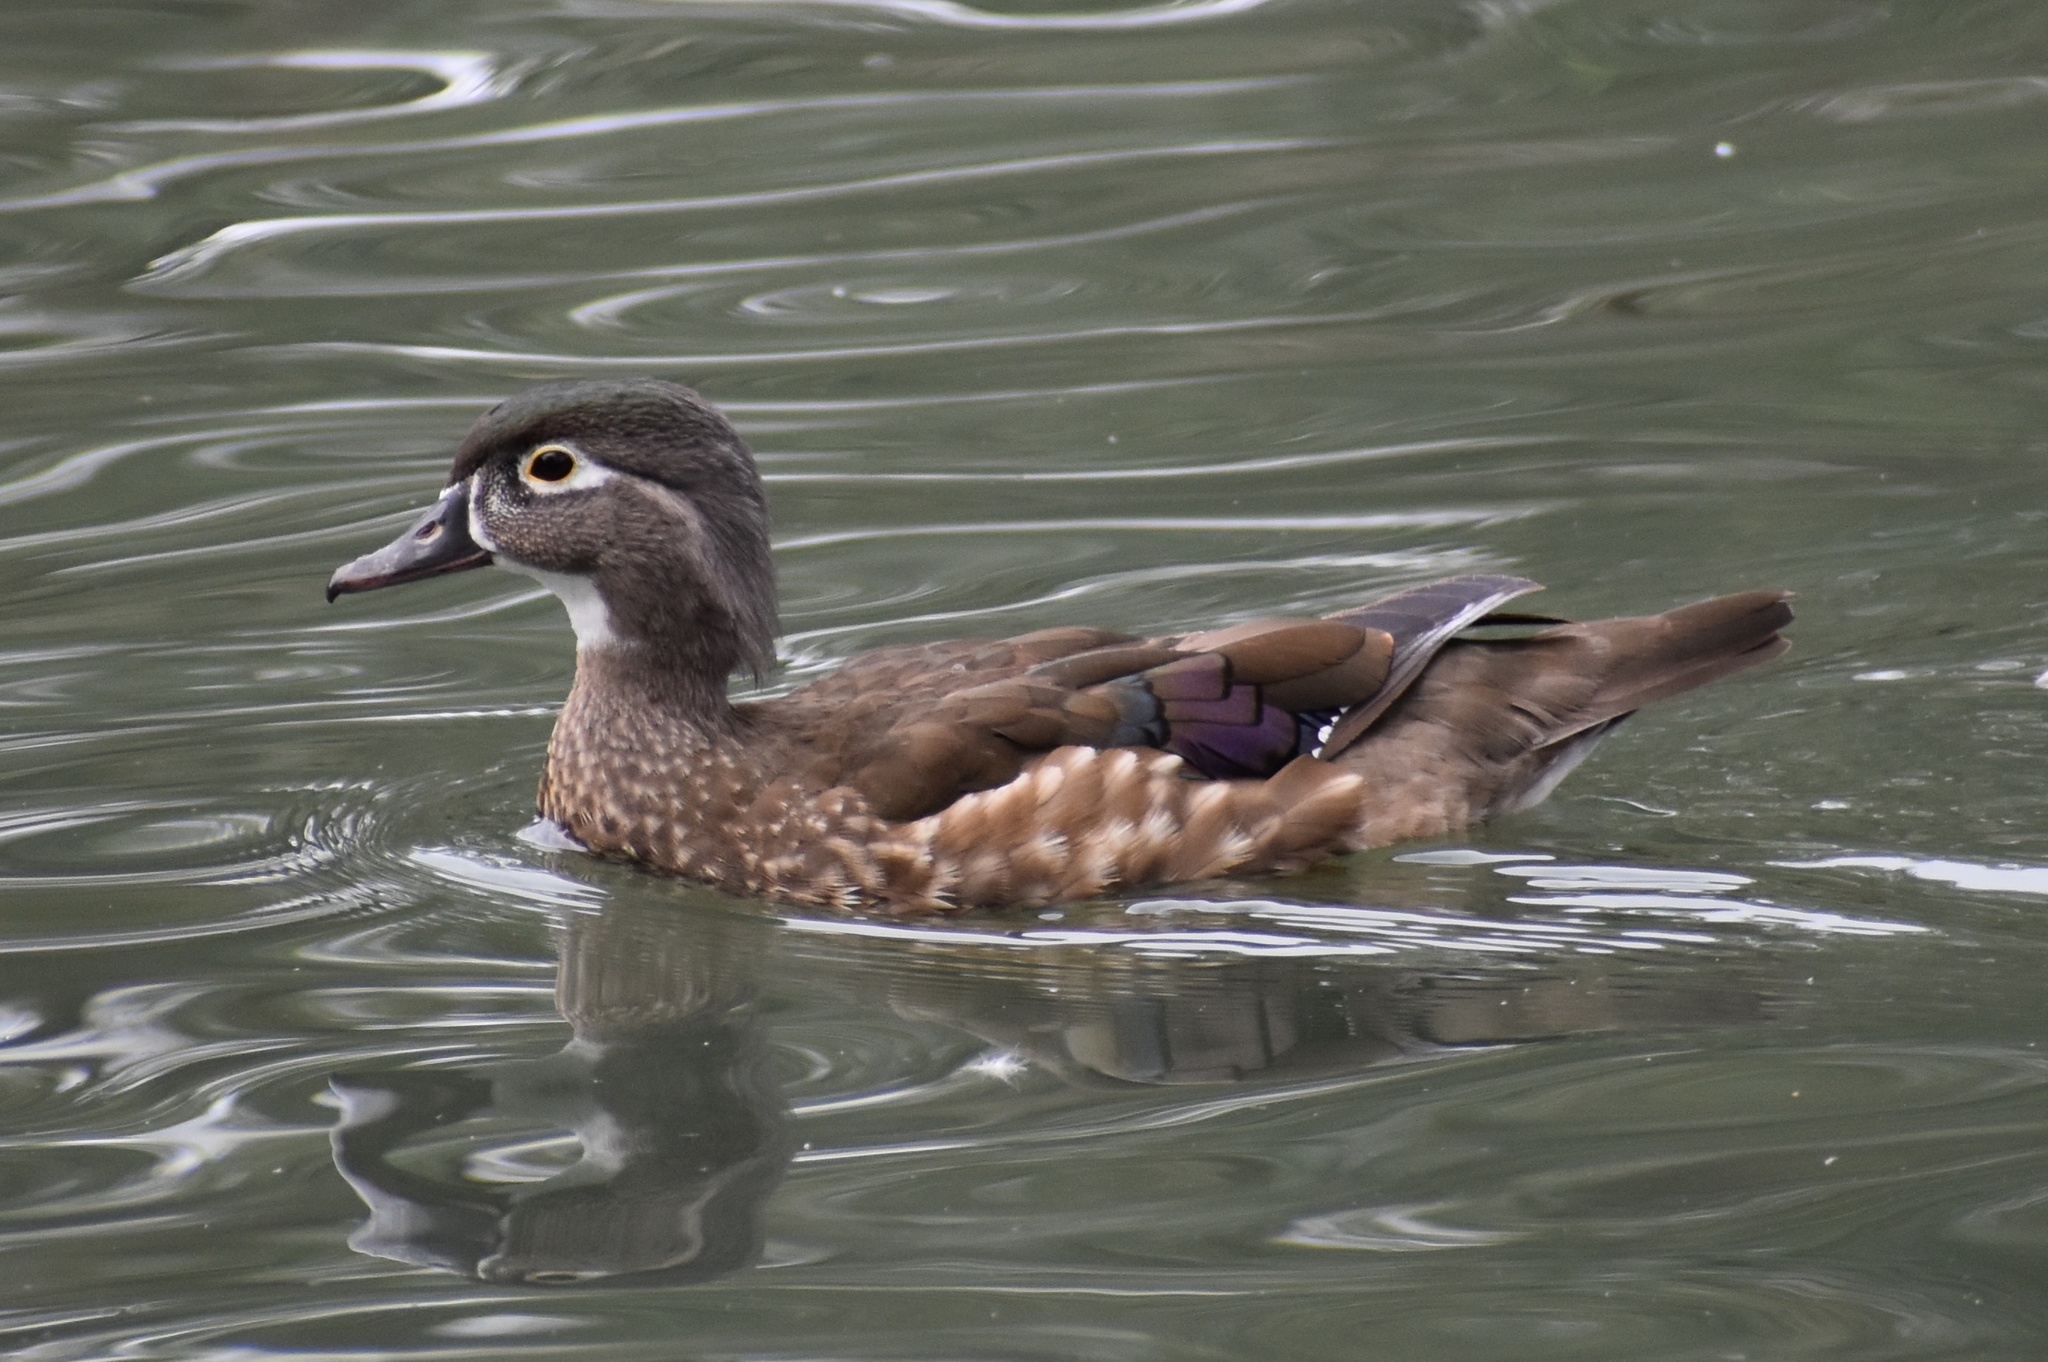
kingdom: Animalia
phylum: Chordata
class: Aves
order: Anseriformes
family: Anatidae
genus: Aix
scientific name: Aix sponsa
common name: Wood duck
